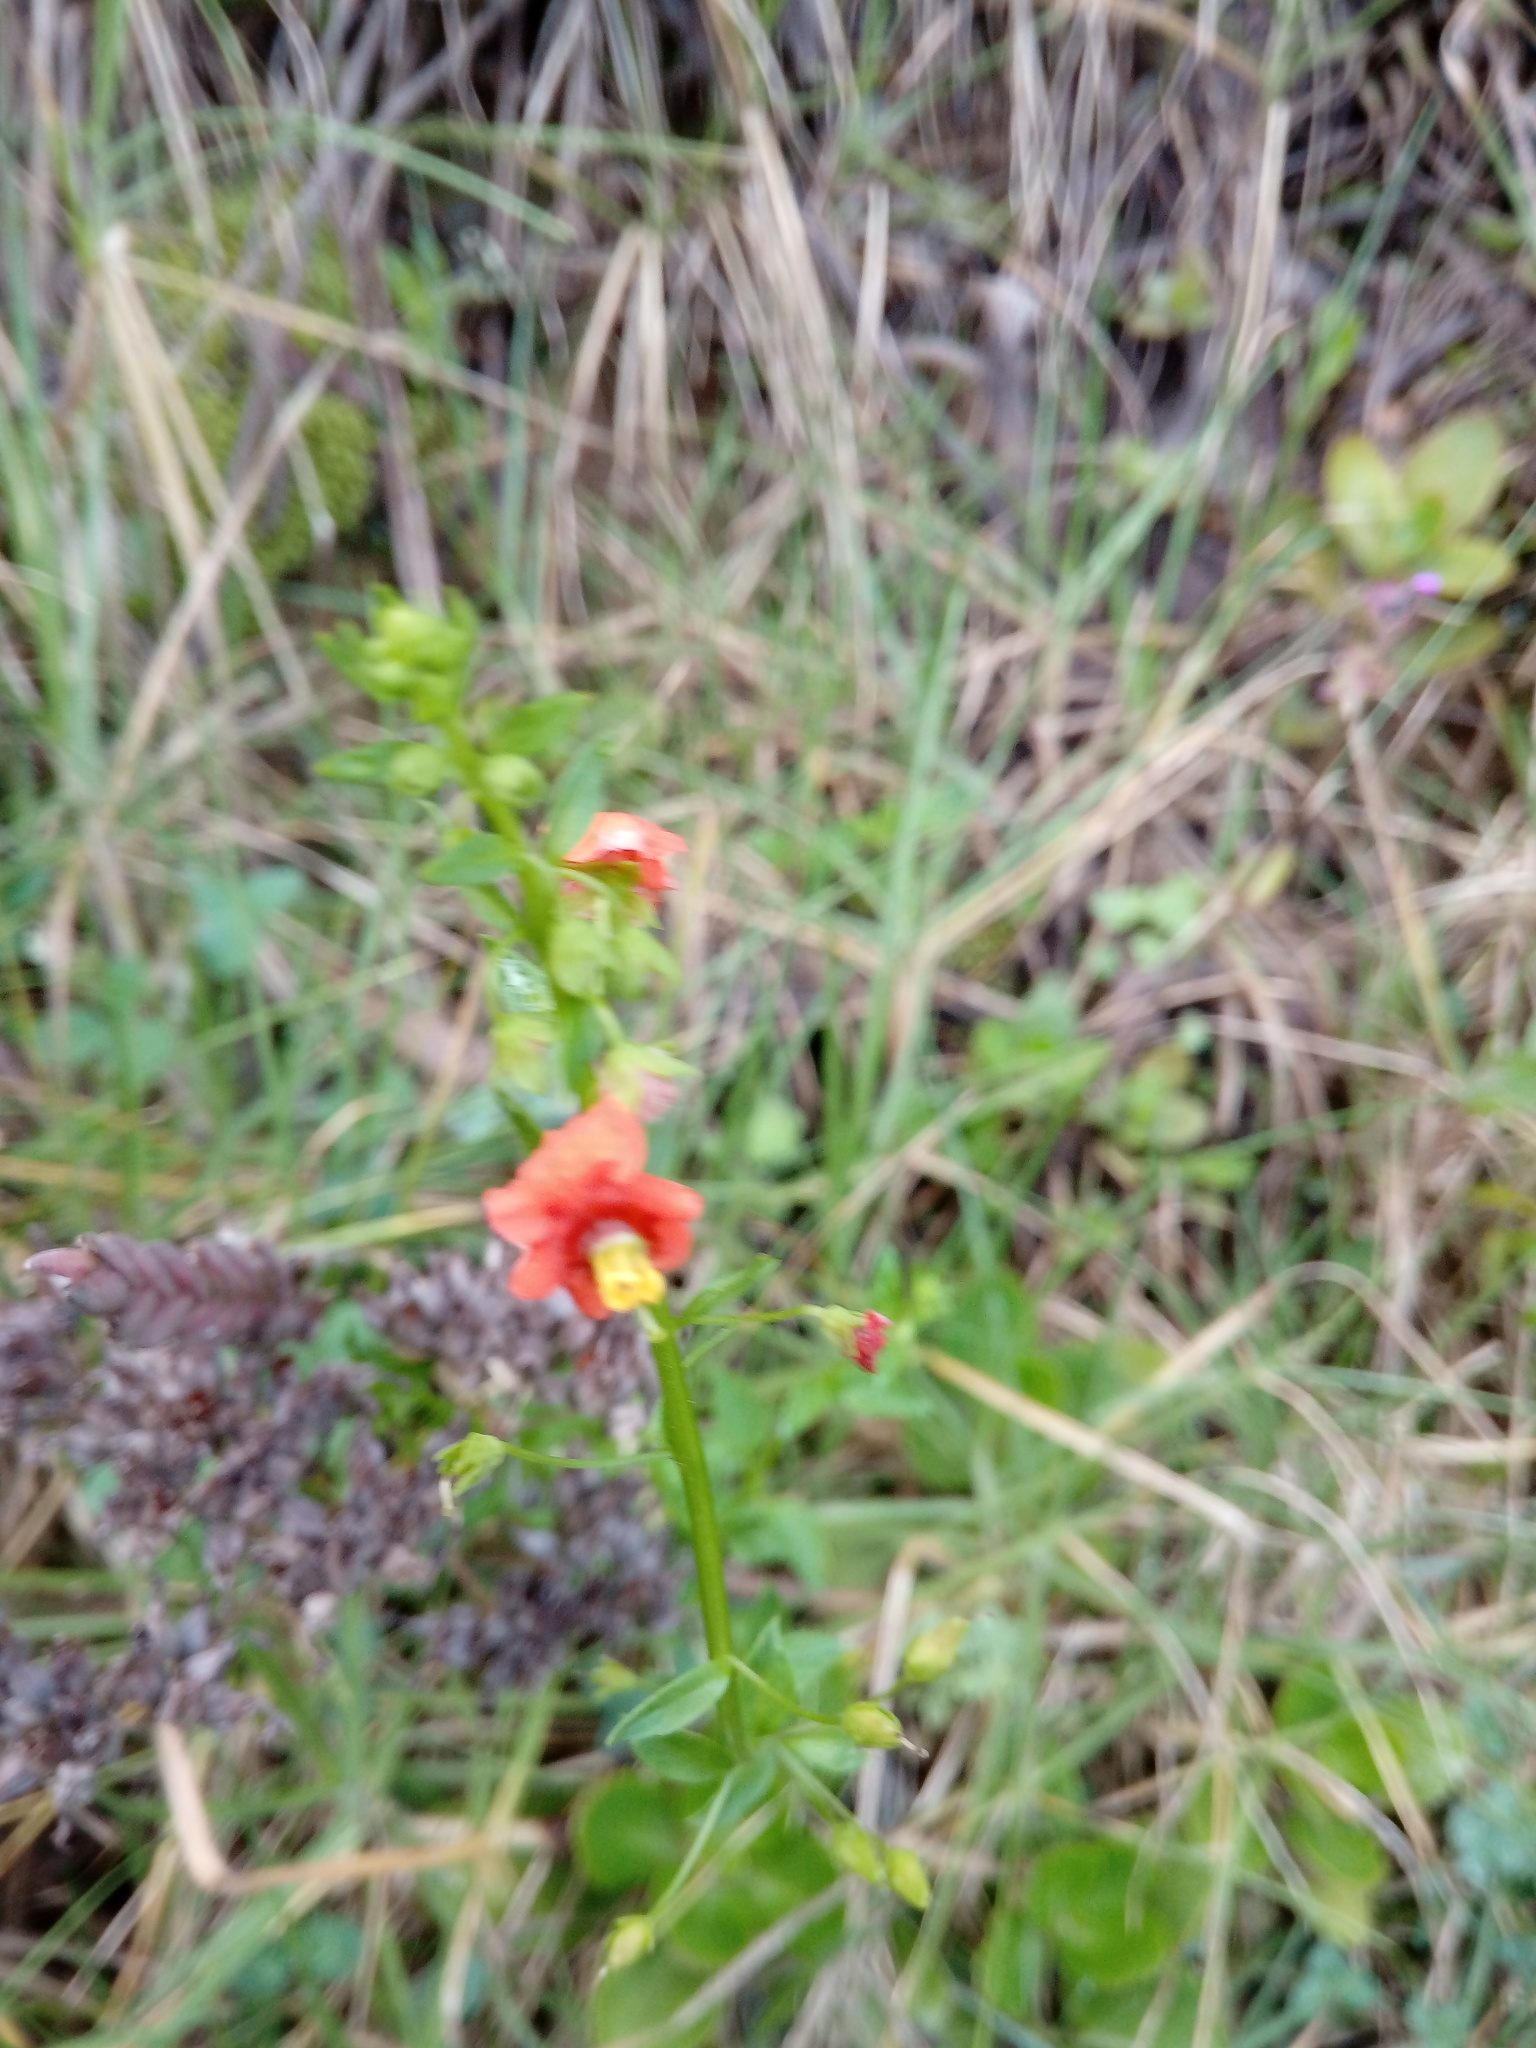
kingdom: Plantae
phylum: Tracheophyta
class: Magnoliopsida
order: Lamiales
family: Scrophulariaceae
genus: Alonsoa
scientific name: Alonsoa meridionalis
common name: Maskflower
